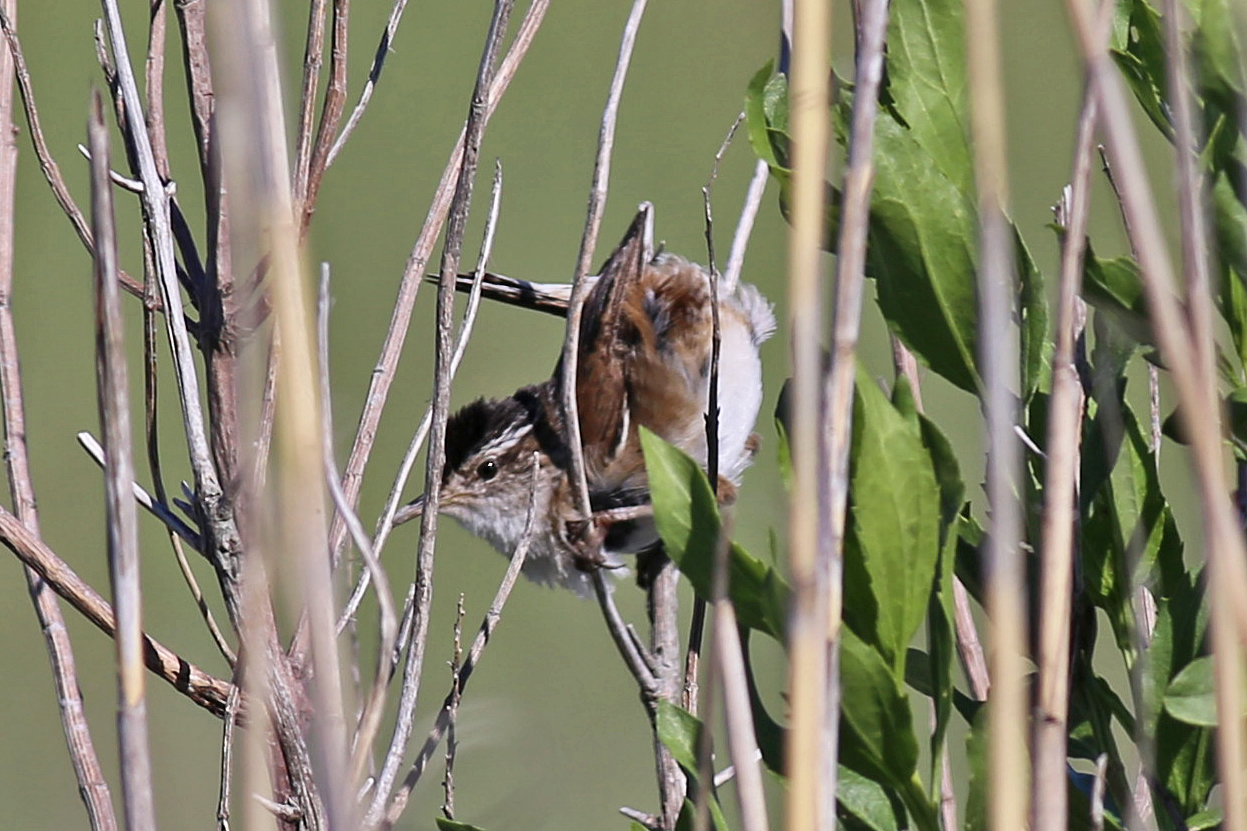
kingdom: Animalia
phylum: Chordata
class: Aves
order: Passeriformes
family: Troglodytidae
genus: Cistothorus
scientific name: Cistothorus palustris
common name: Marsh wren
